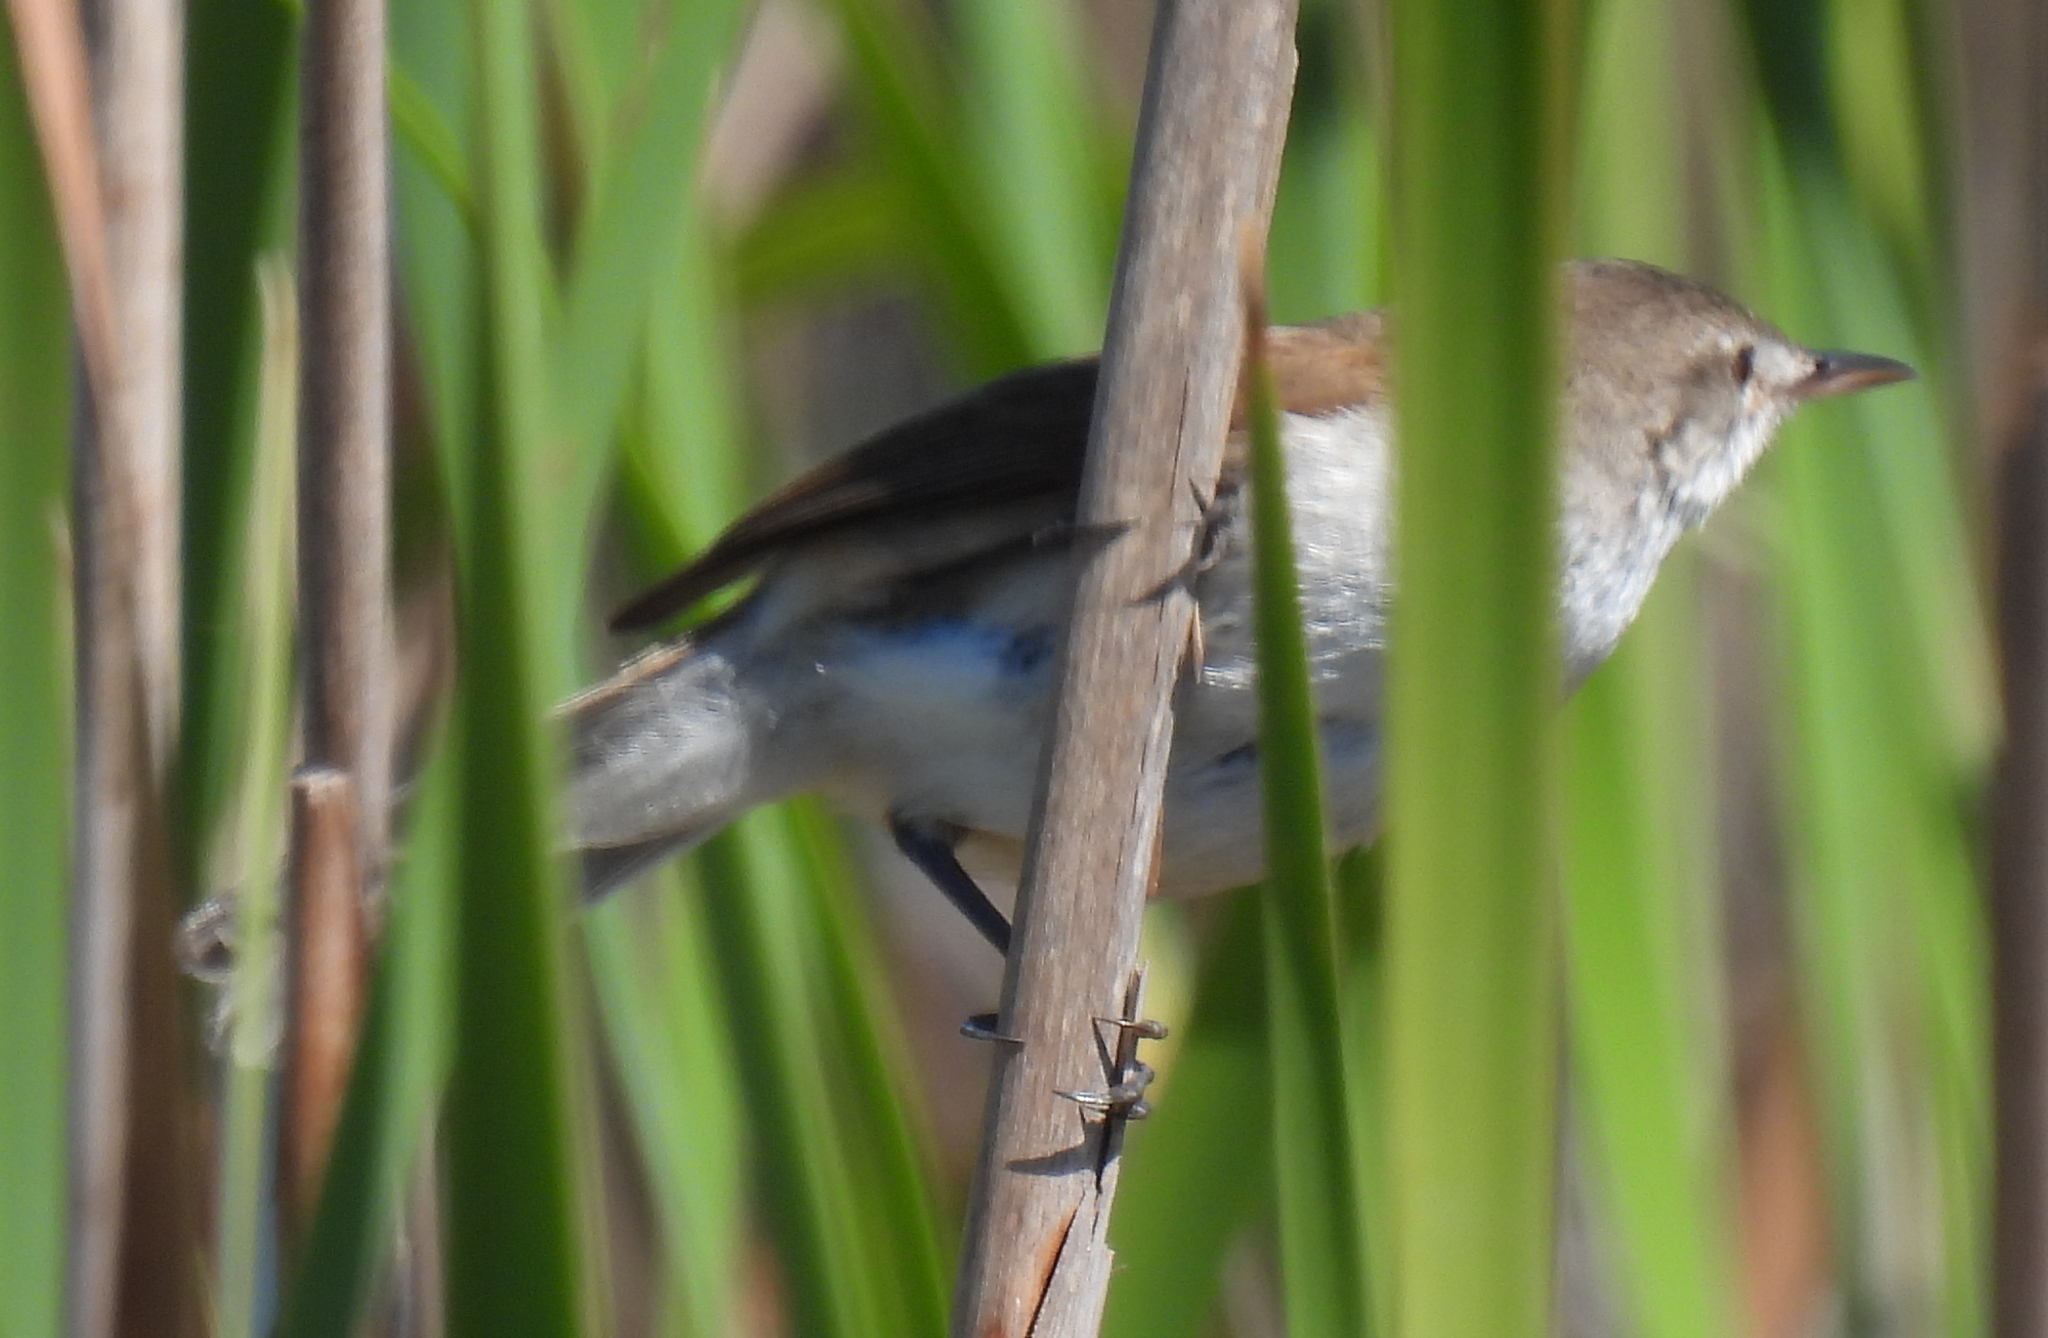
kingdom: Animalia
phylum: Chordata
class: Aves
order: Passeriformes
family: Acrocephalidae
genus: Acrocephalus
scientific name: Acrocephalus gracilirostris
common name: Lesser swamp warbler
